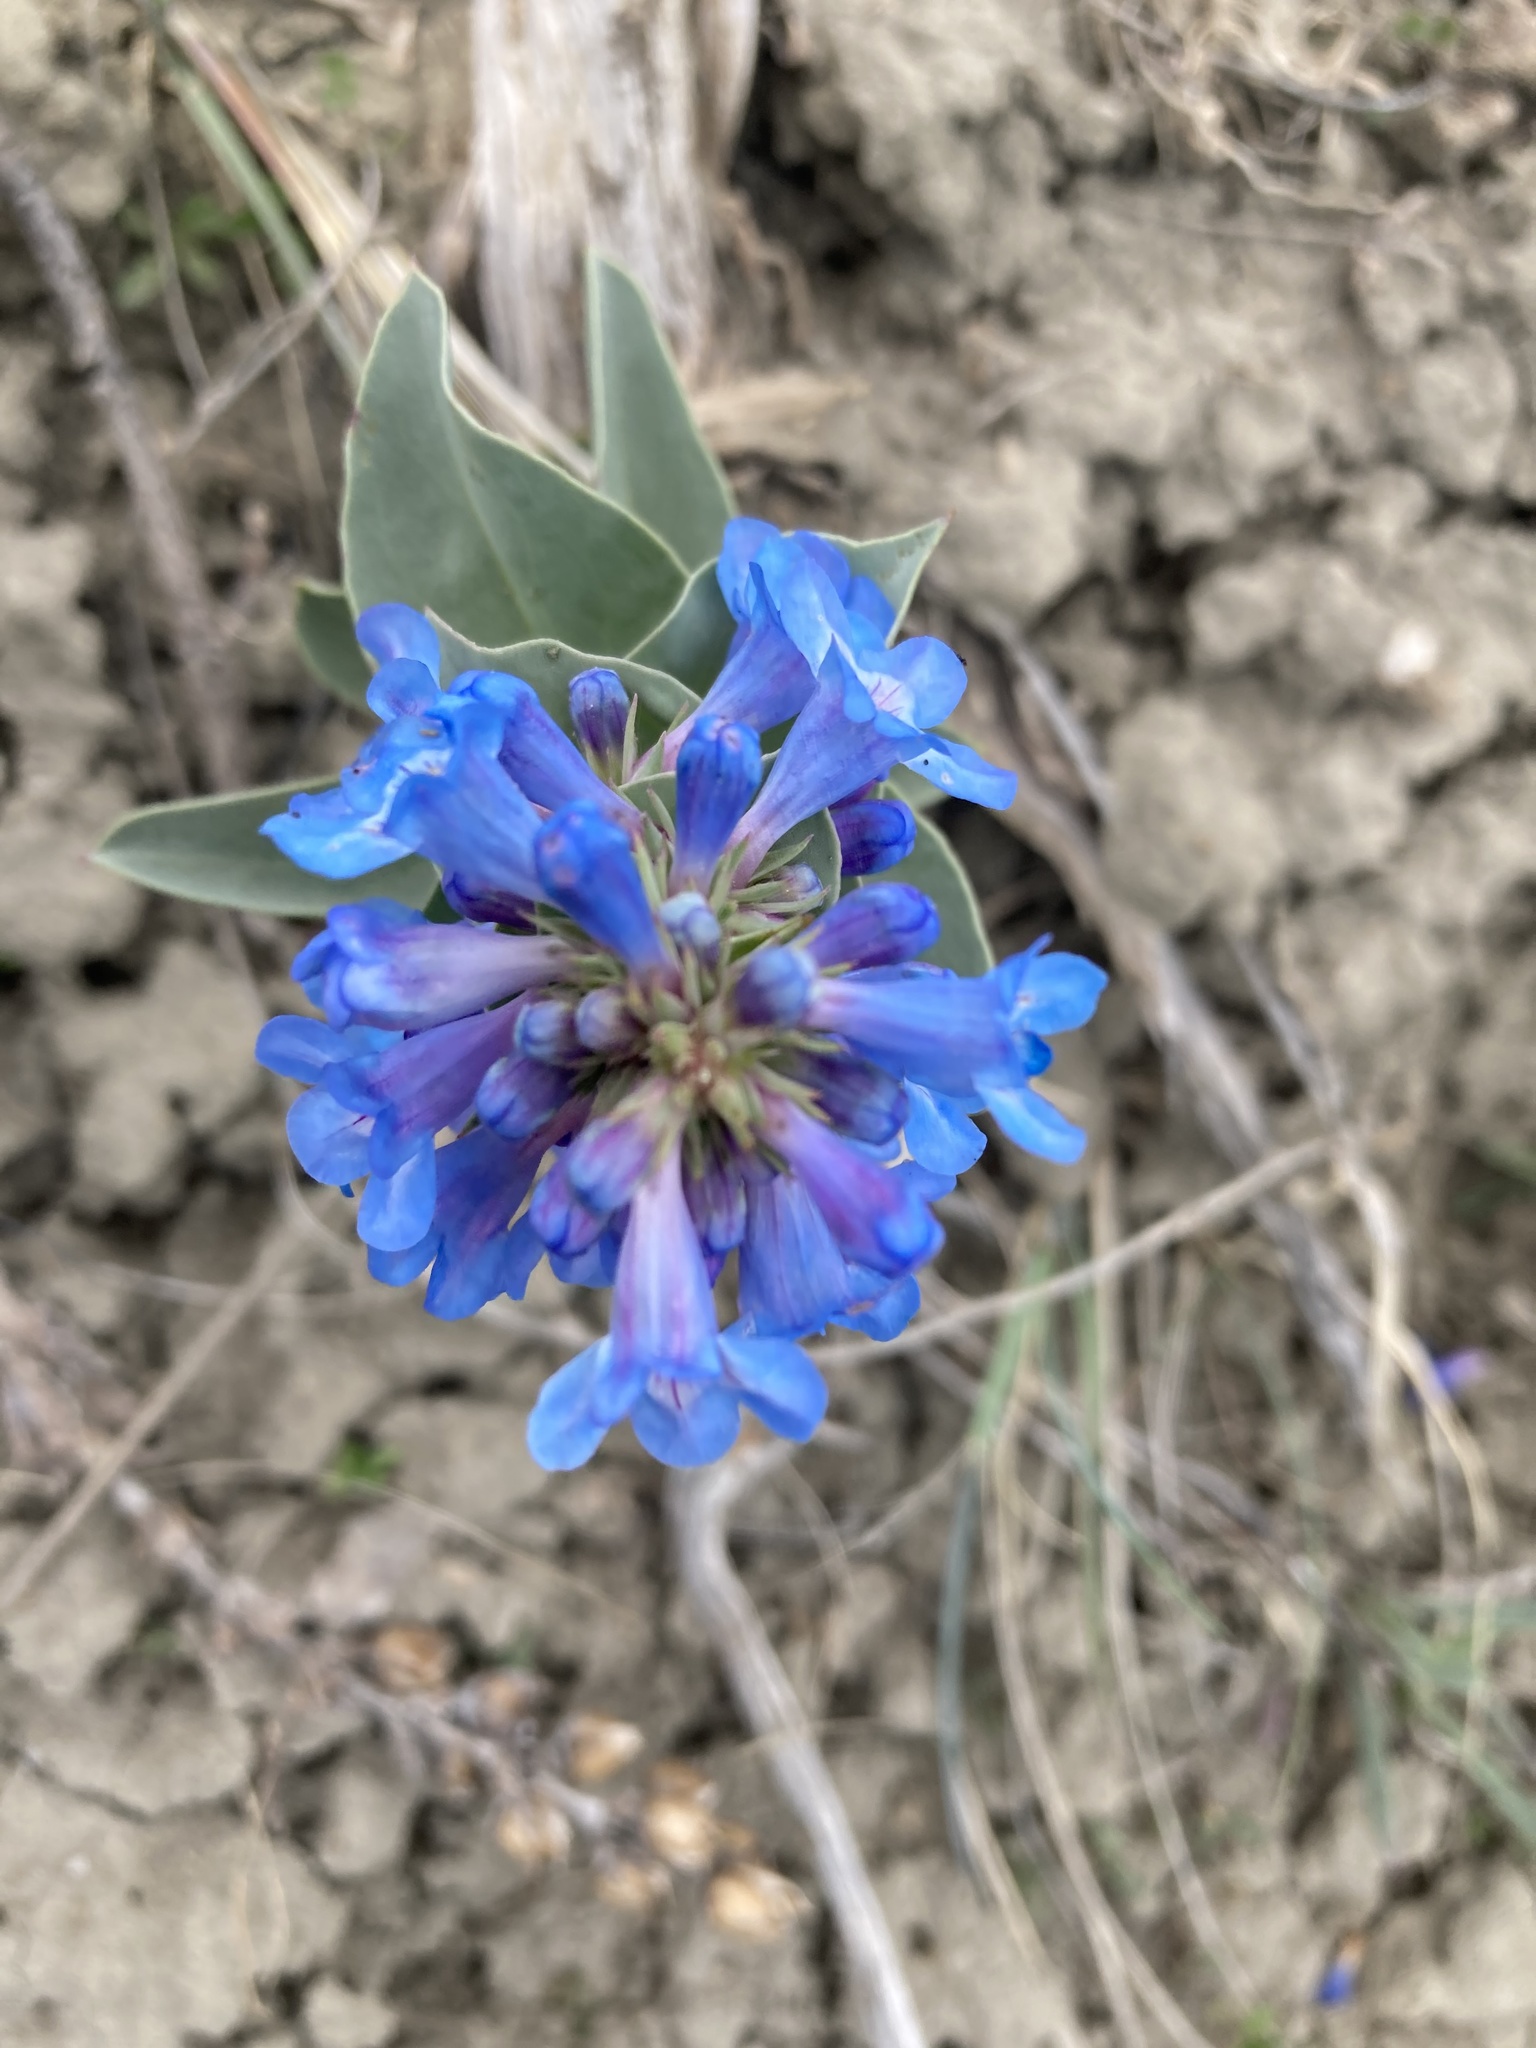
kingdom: Plantae
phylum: Tracheophyta
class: Magnoliopsida
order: Lamiales
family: Plantaginaceae
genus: Penstemon
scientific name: Penstemon nitidus
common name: Shining penstemon
